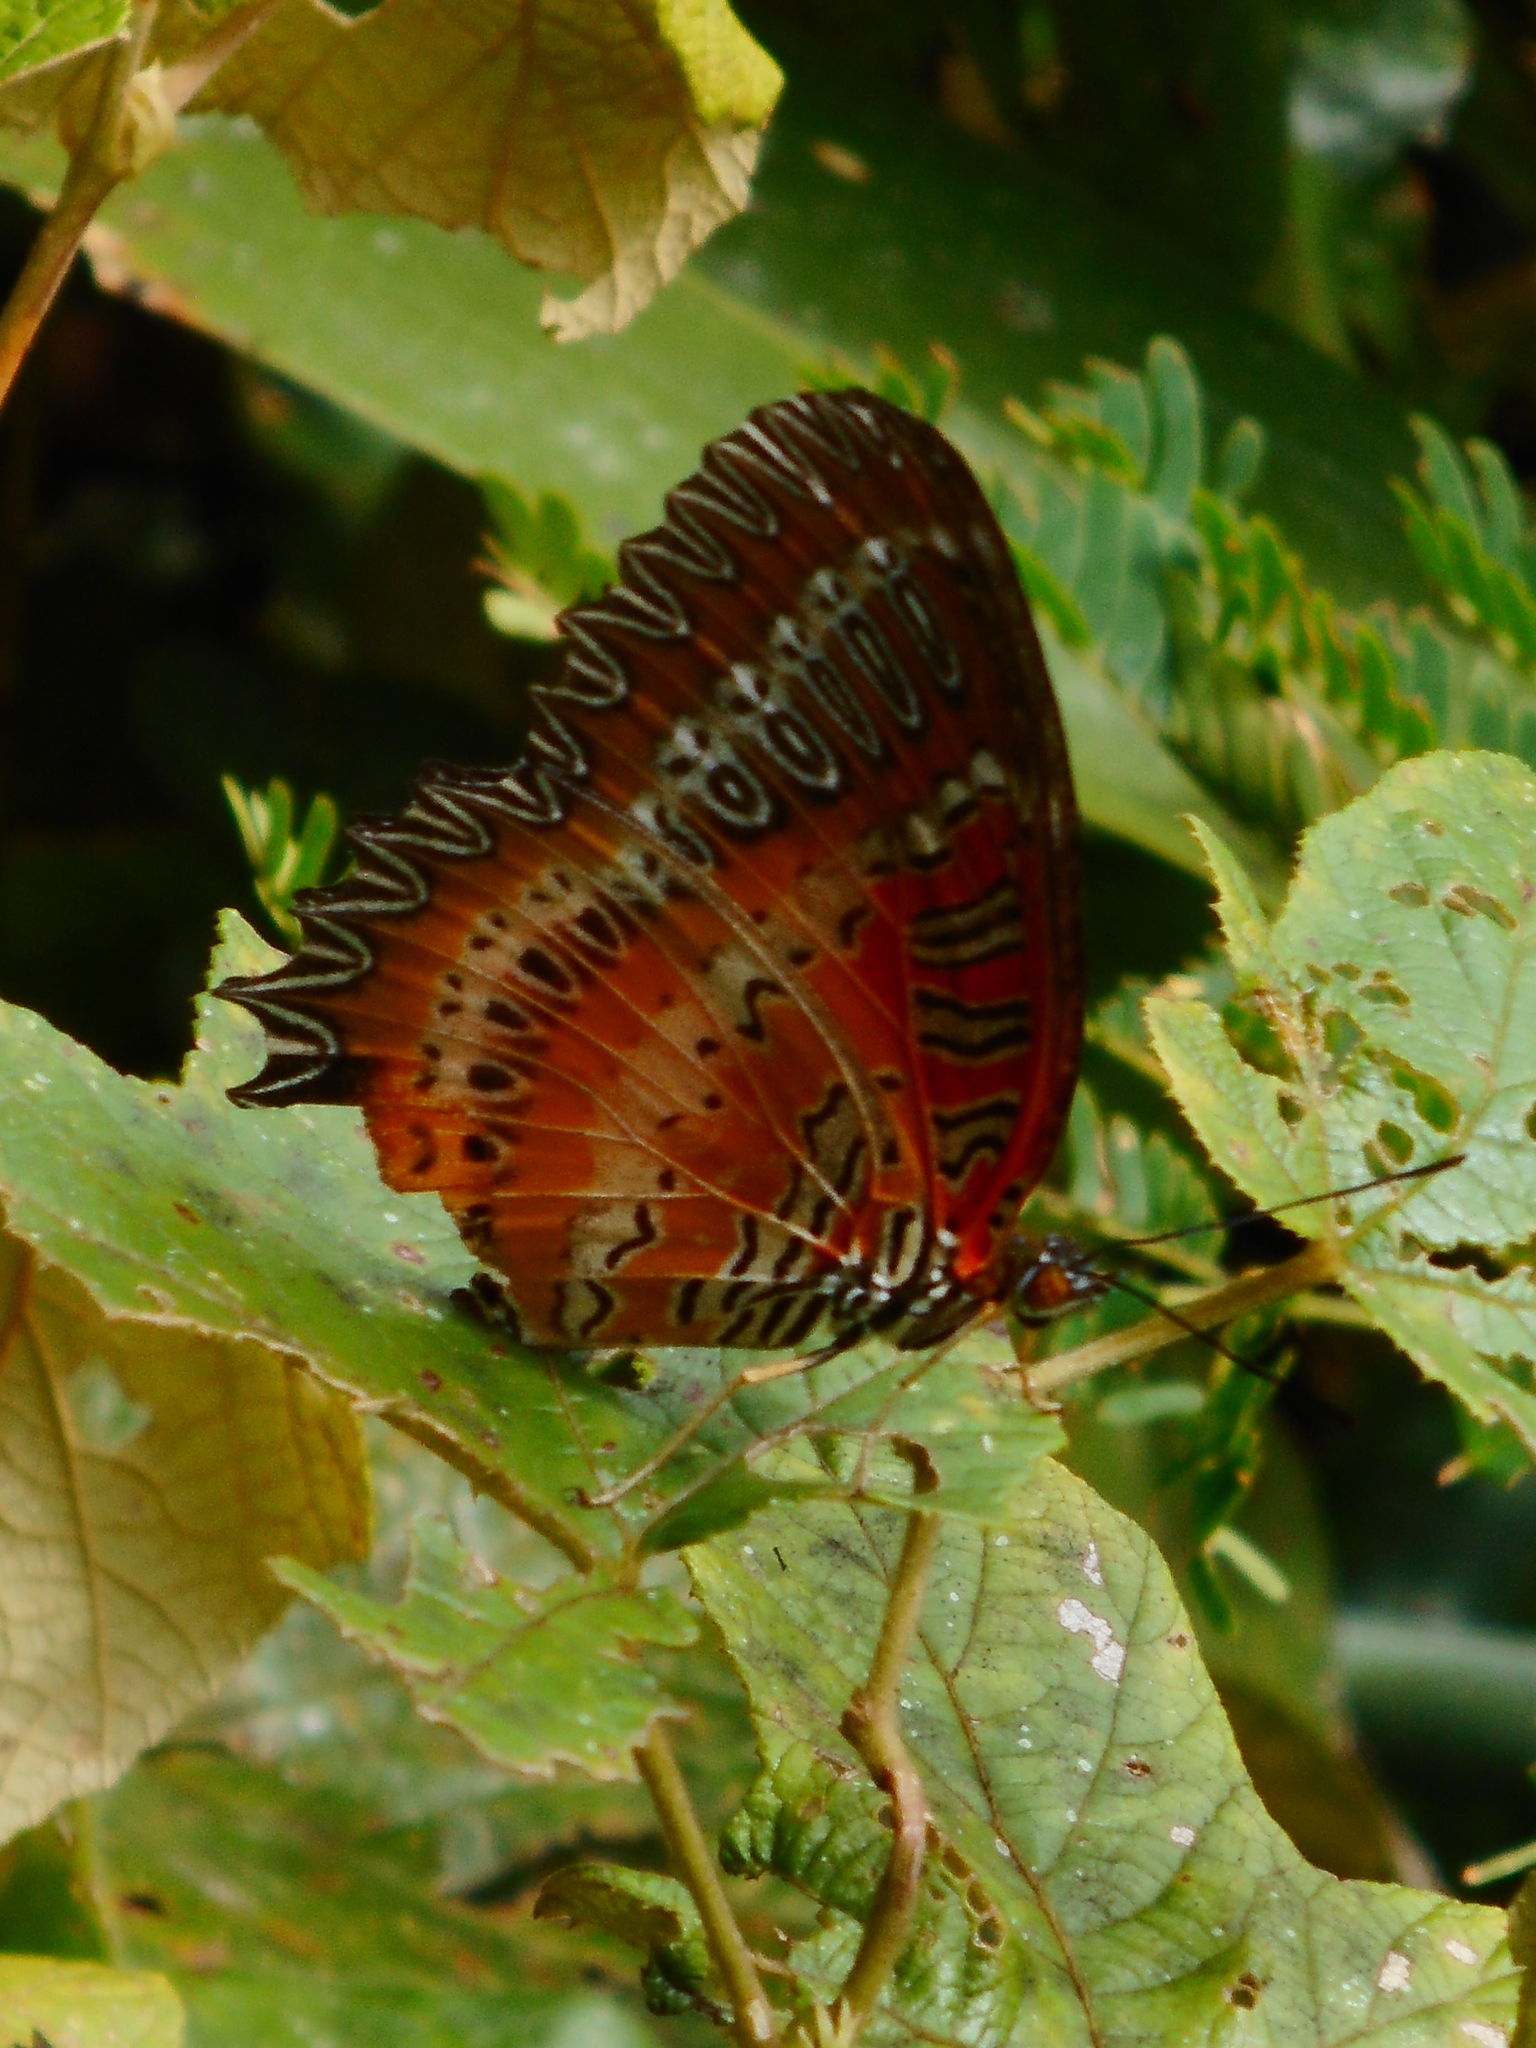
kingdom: Animalia
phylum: Arthropoda
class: Insecta
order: Lepidoptera
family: Nymphalidae
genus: Cethosia
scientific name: Cethosia biblis
